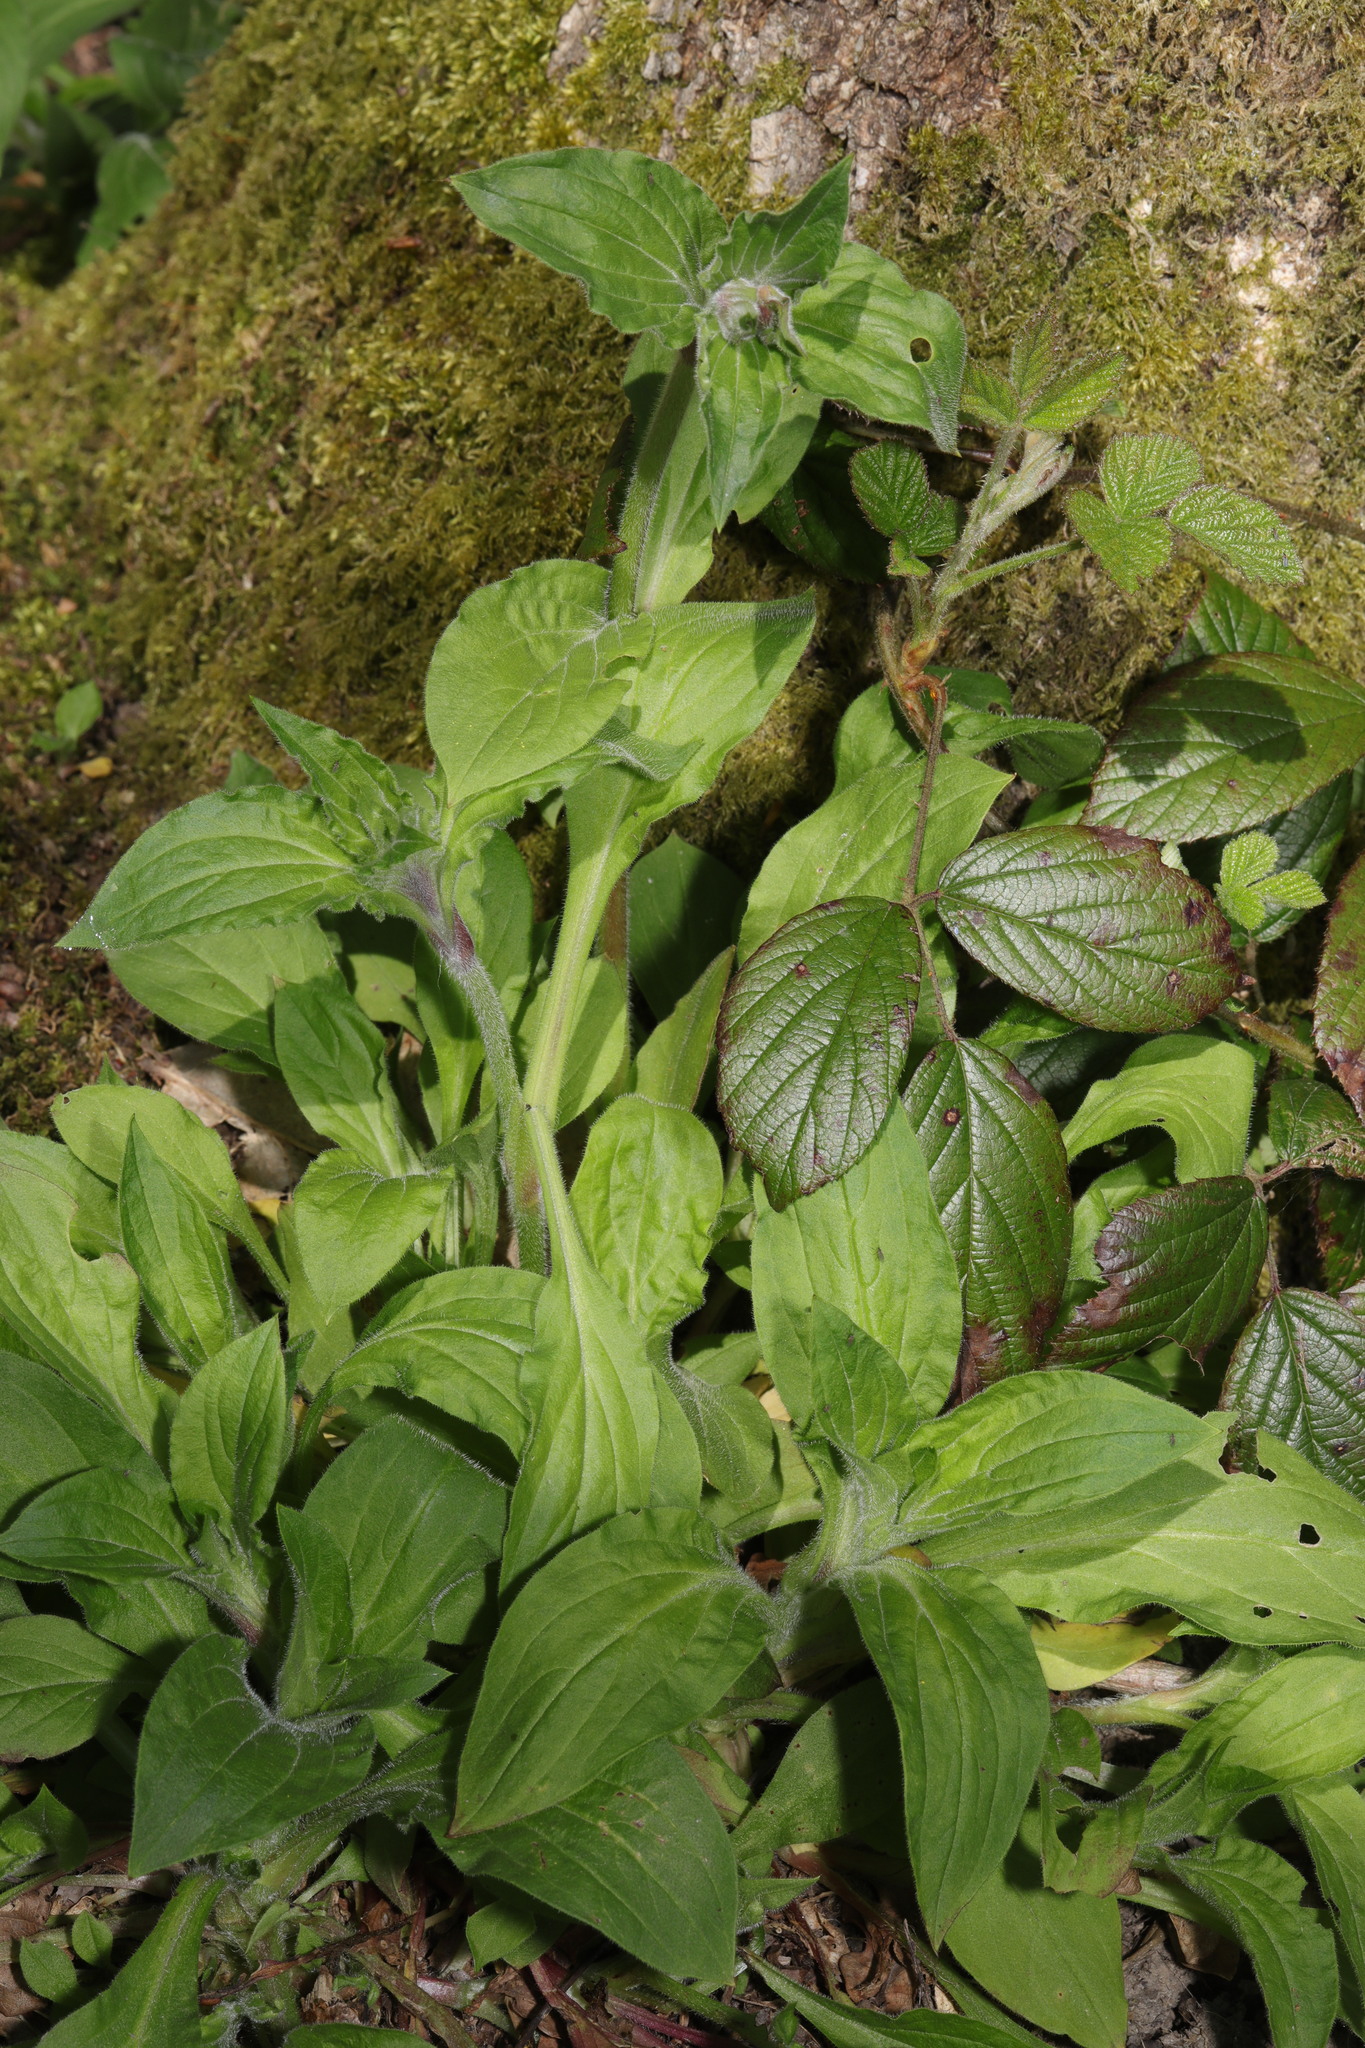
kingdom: Plantae
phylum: Tracheophyta
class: Magnoliopsida
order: Caryophyllales
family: Caryophyllaceae
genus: Silene
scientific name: Silene dioica
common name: Red campion
